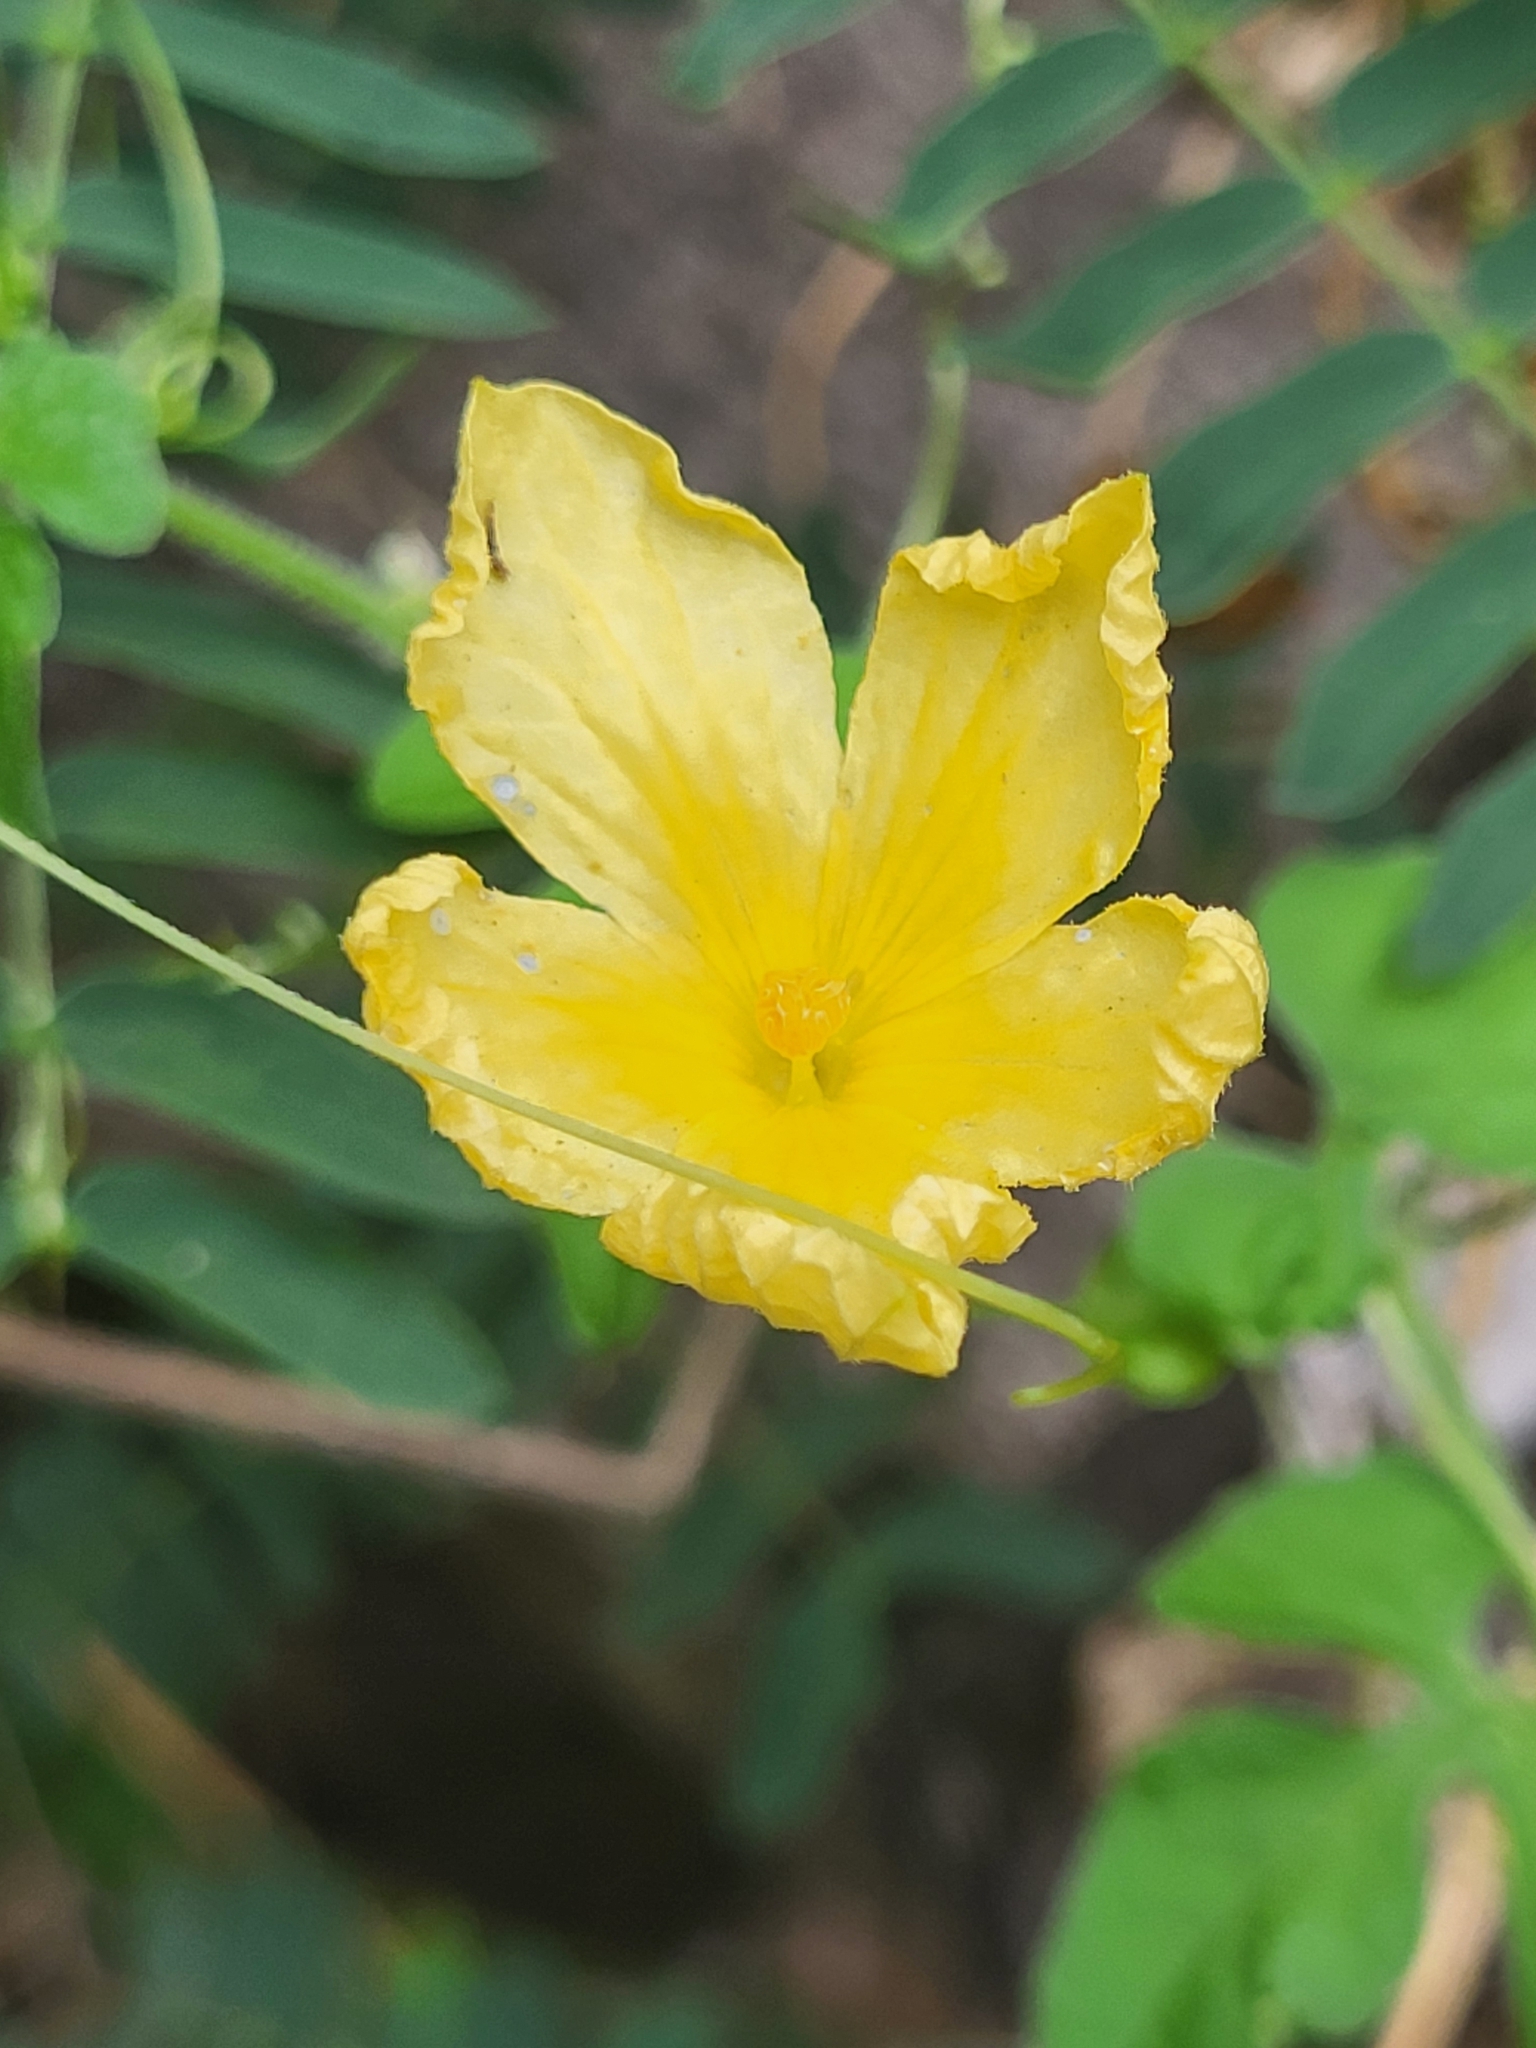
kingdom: Plantae
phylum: Tracheophyta
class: Magnoliopsida
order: Cucurbitales
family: Cucurbitaceae
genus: Momordica
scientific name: Momordica charantia
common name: Balsampear
